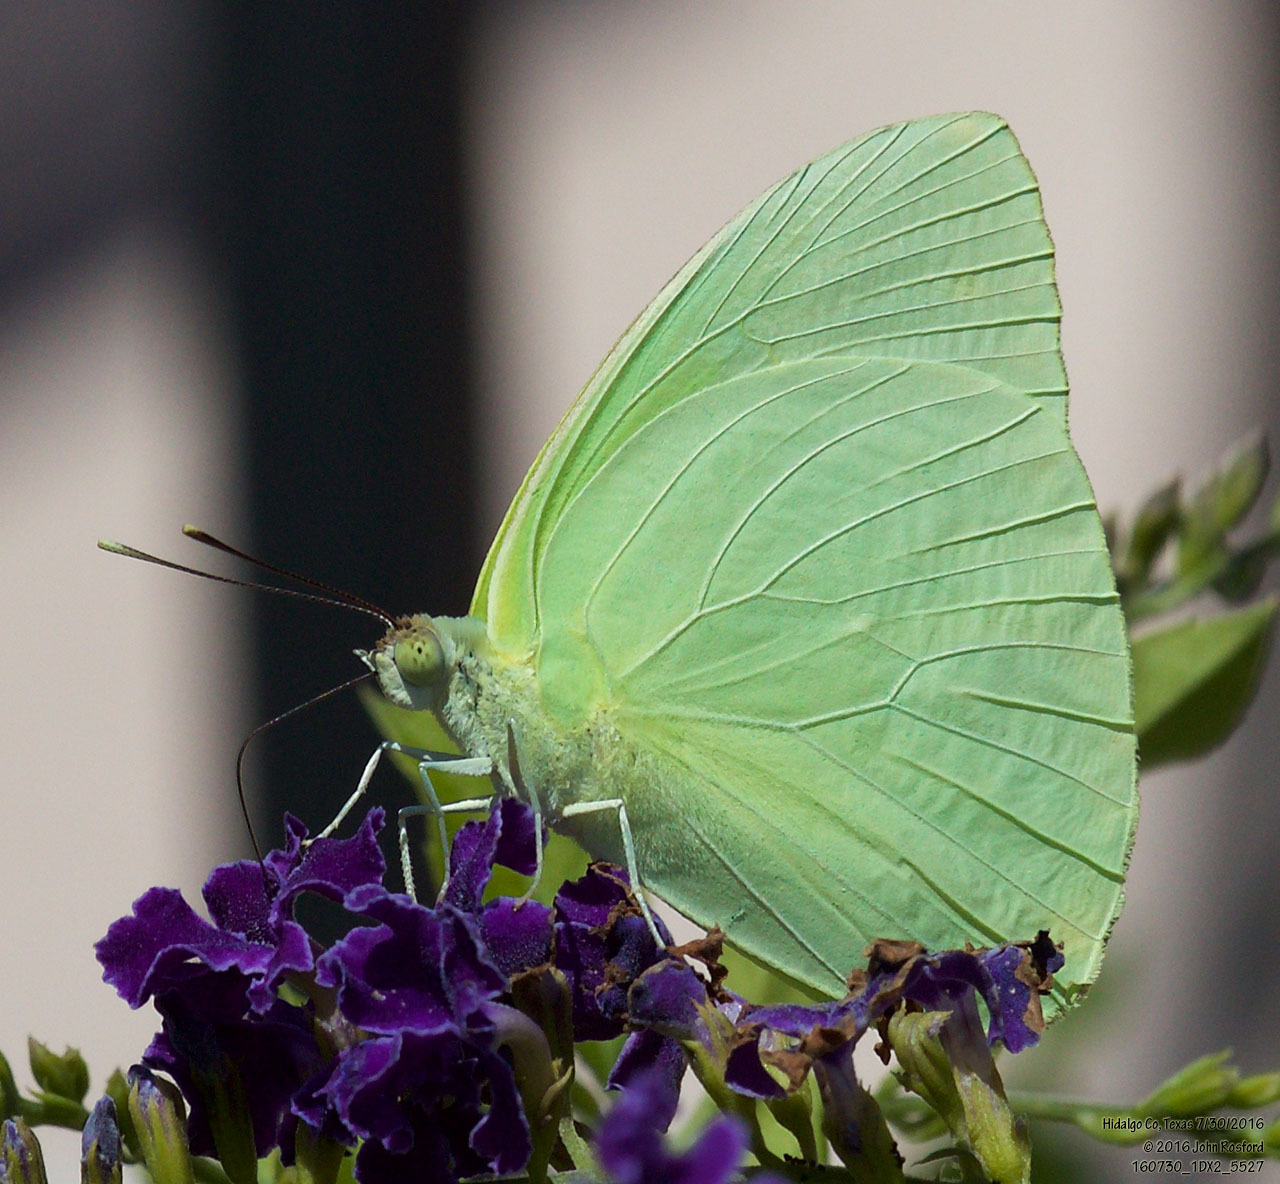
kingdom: Animalia
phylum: Arthropoda
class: Insecta
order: Lepidoptera
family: Pieridae
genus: Aphrissa
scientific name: Aphrissa statira
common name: Statira sulphur
